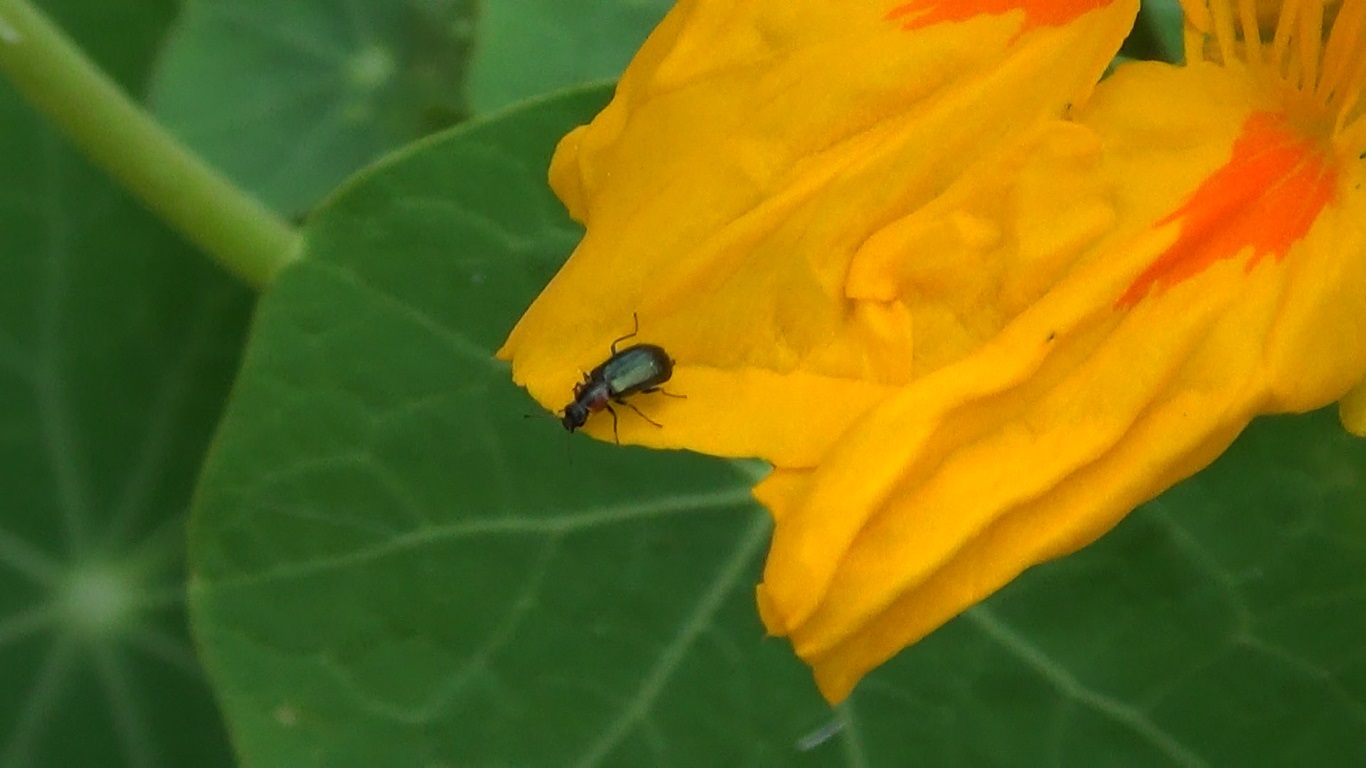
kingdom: Animalia
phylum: Arthropoda
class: Insecta
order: Coleoptera
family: Malachiidae
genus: Attalus
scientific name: Attalus aetnensis
